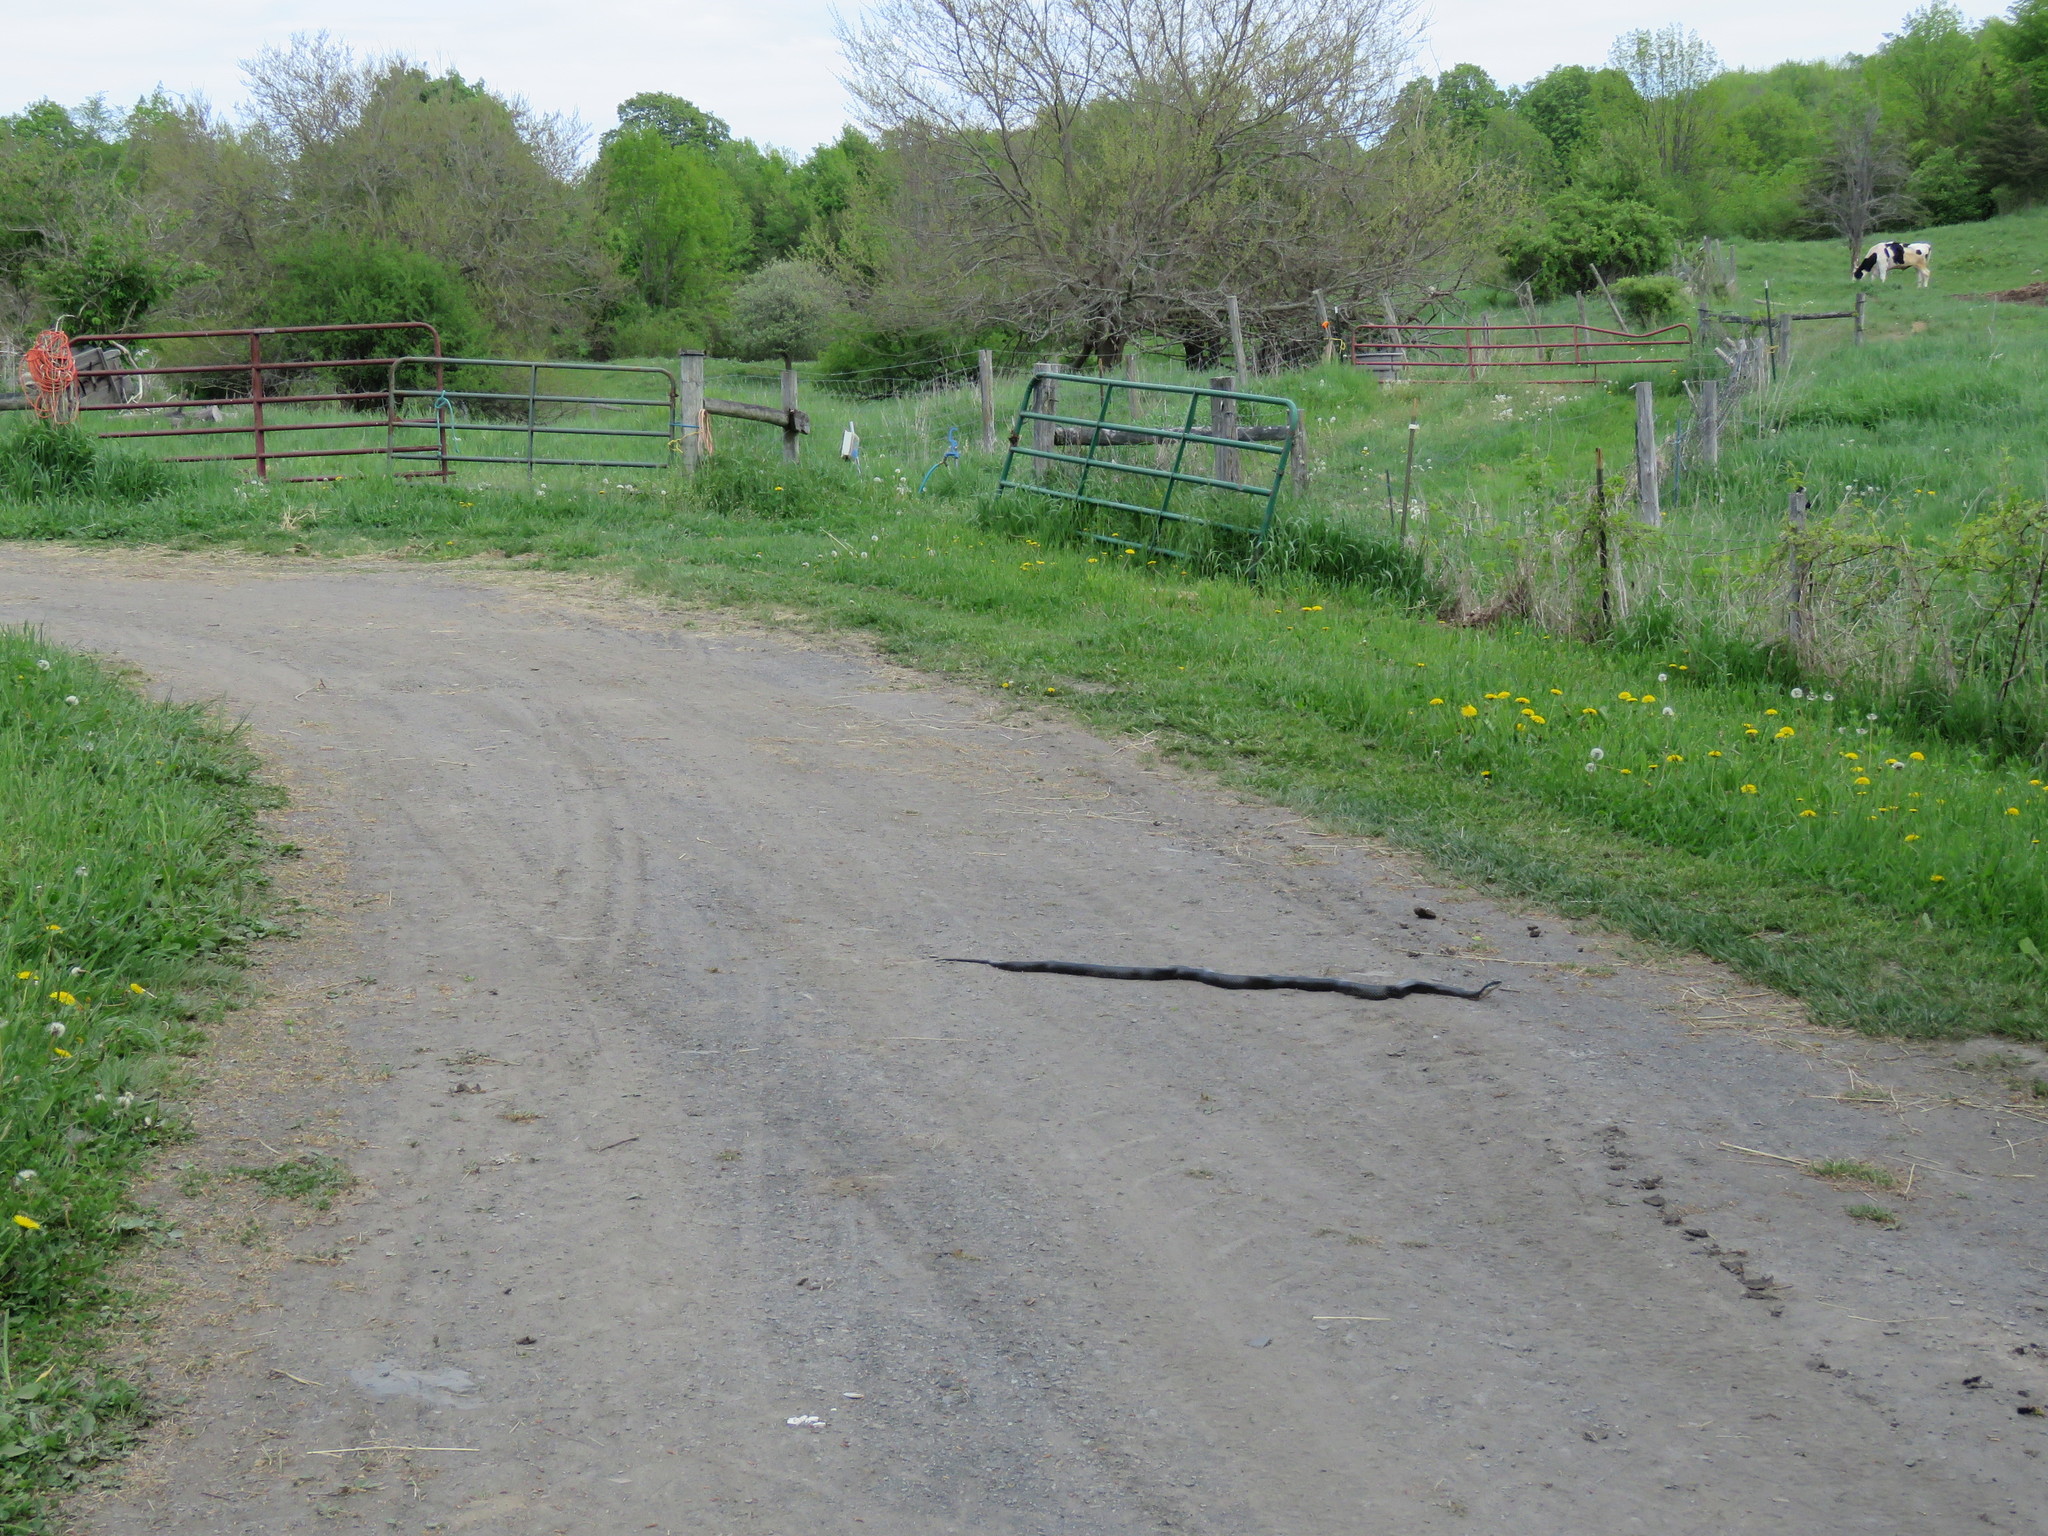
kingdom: Animalia
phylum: Chordata
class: Squamata
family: Colubridae
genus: Pantherophis
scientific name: Pantherophis alleghaniensis
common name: Eastern rat snake
